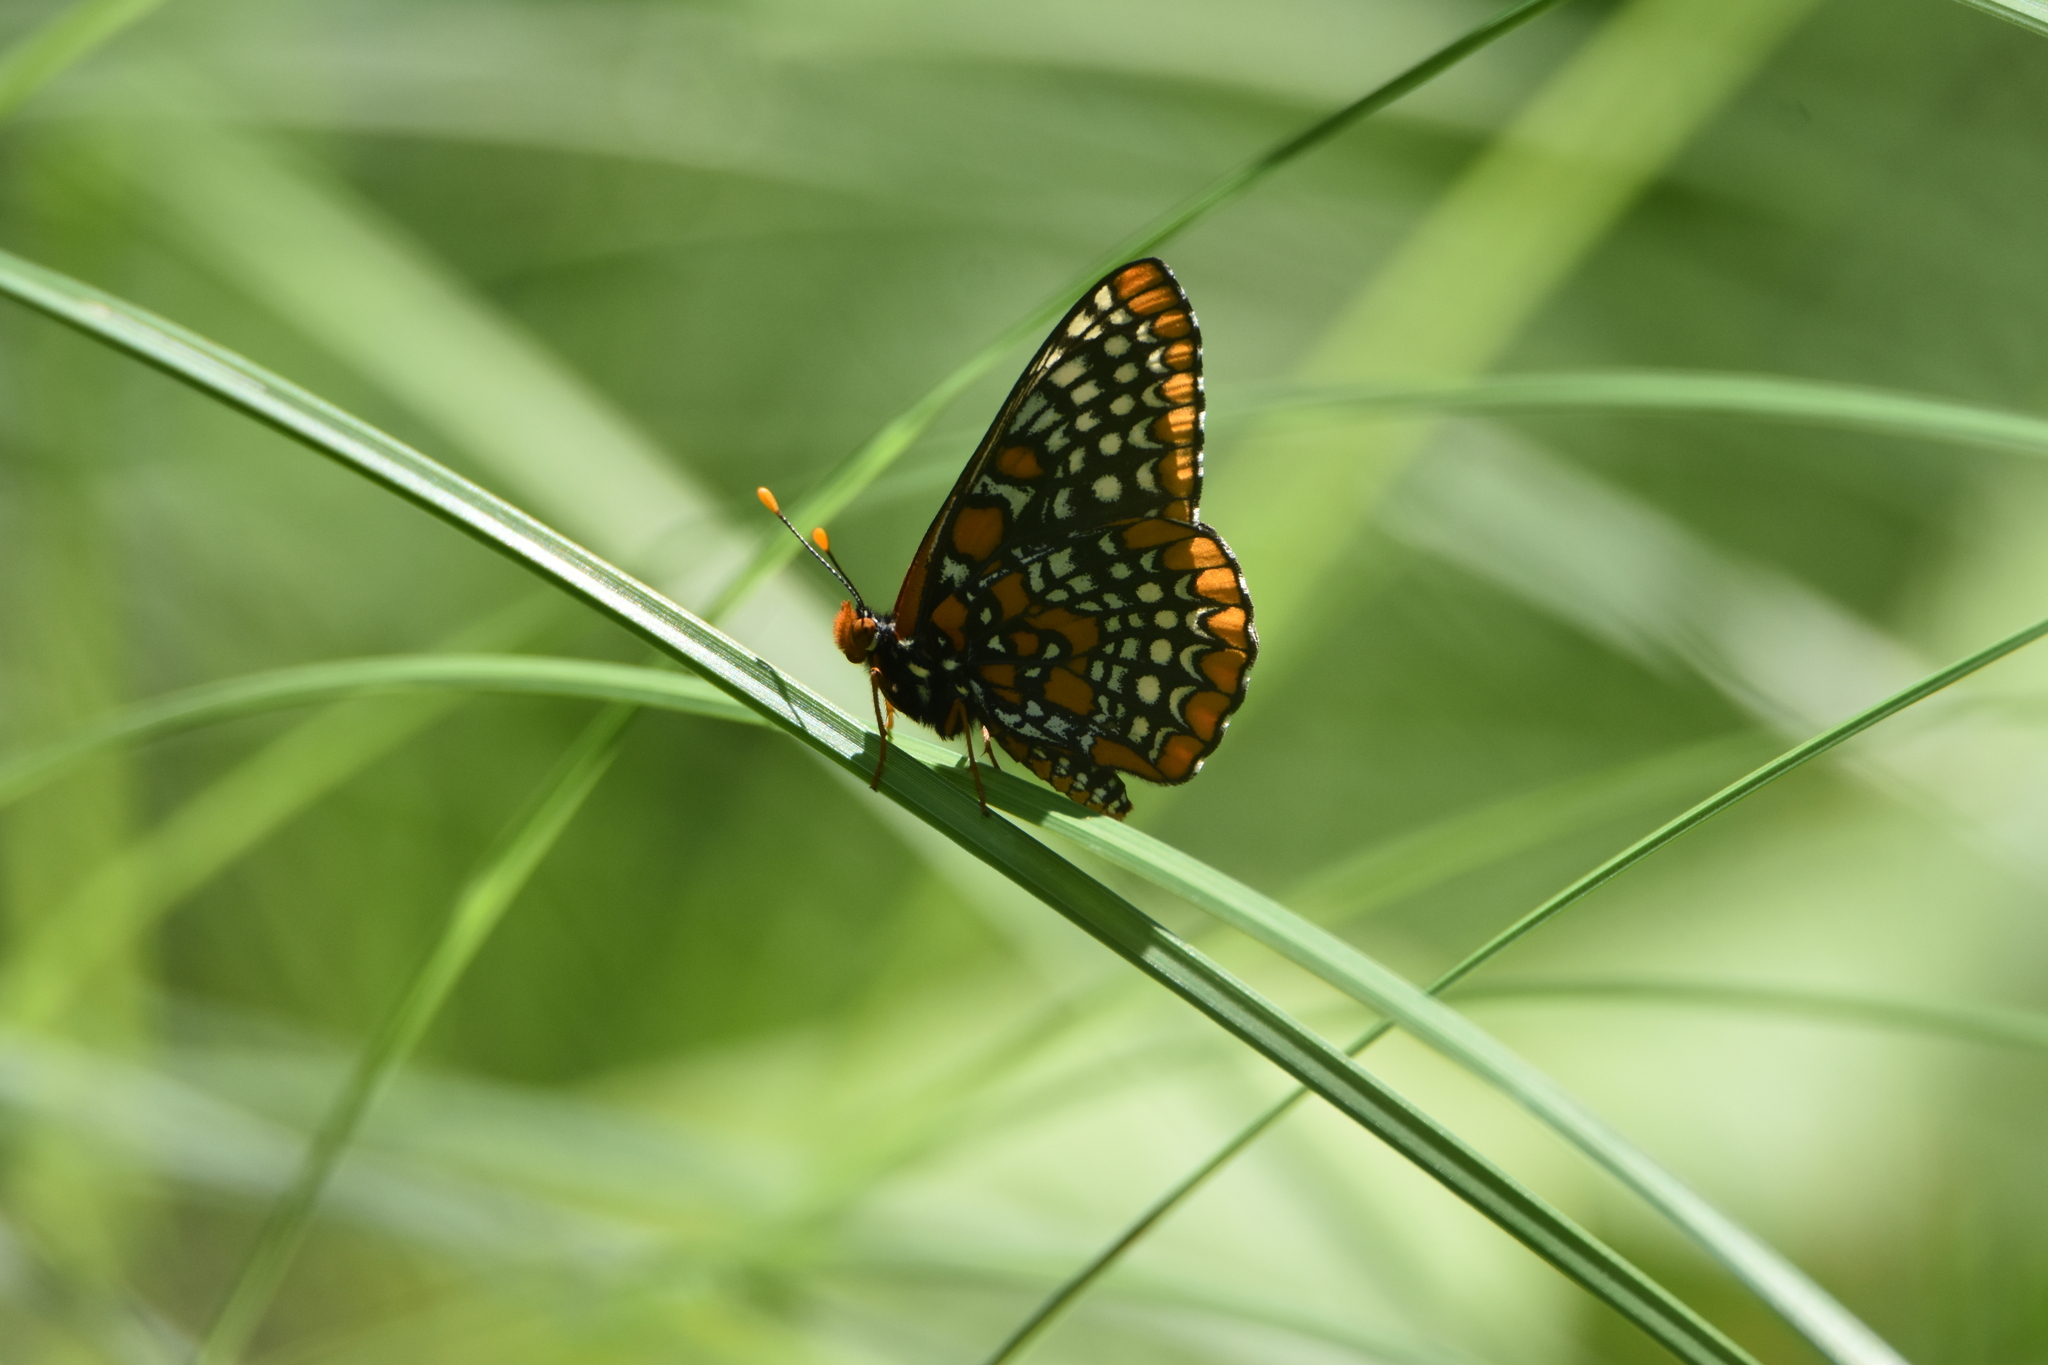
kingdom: Animalia
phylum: Arthropoda
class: Insecta
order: Lepidoptera
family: Nymphalidae
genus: Euphydryas
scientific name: Euphydryas phaeton
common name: Baltimore checkerspot
